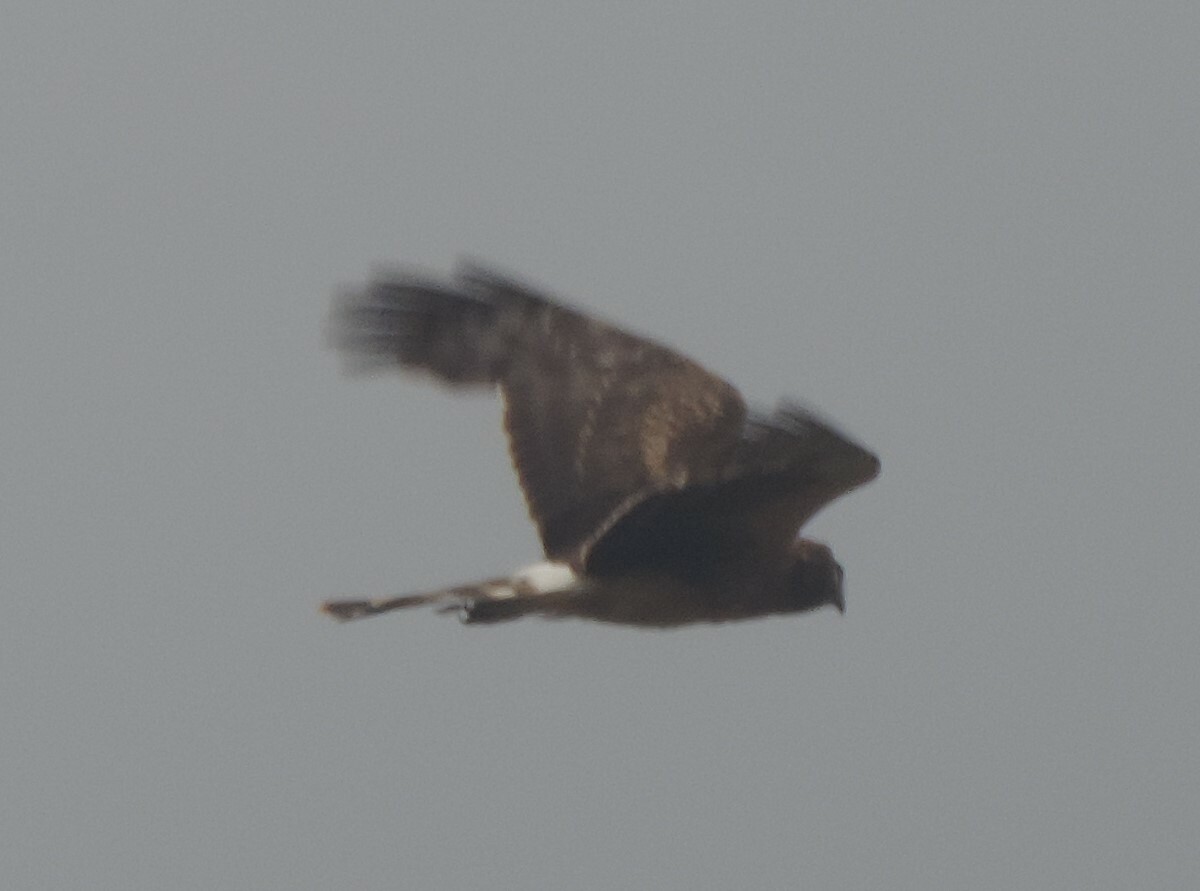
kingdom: Animalia
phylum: Chordata
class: Aves
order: Accipitriformes
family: Accipitridae
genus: Circus
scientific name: Circus cyaneus
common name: Hen harrier
